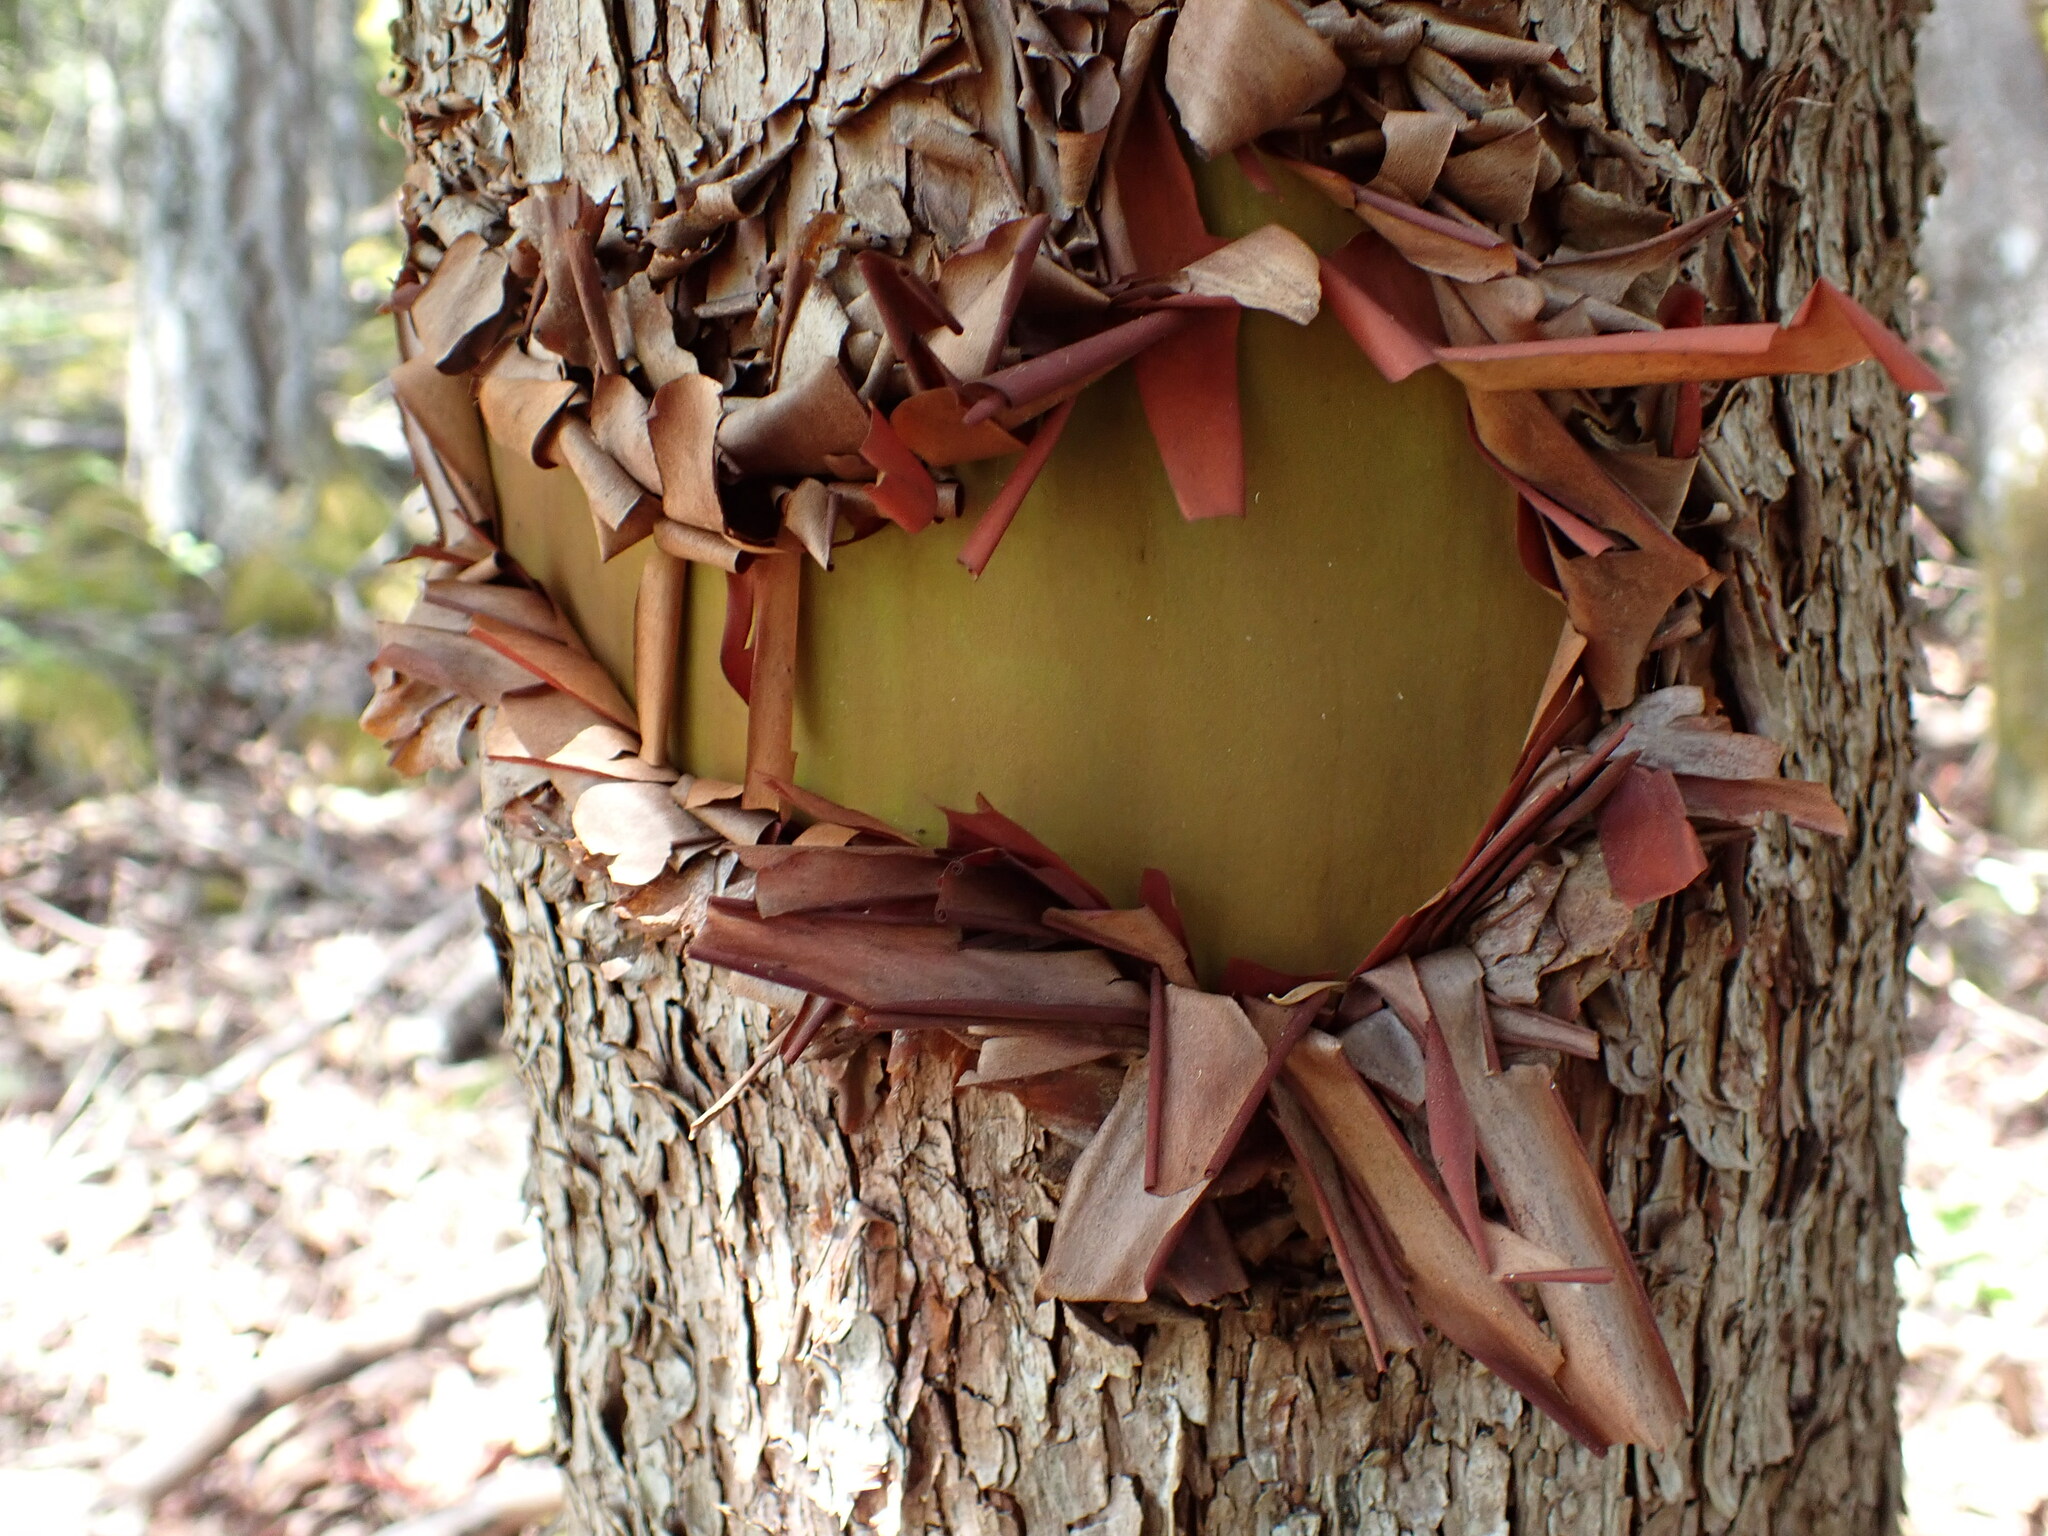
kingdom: Plantae
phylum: Tracheophyta
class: Magnoliopsida
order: Ericales
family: Ericaceae
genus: Arbutus
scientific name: Arbutus menziesii
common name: Pacific madrone
